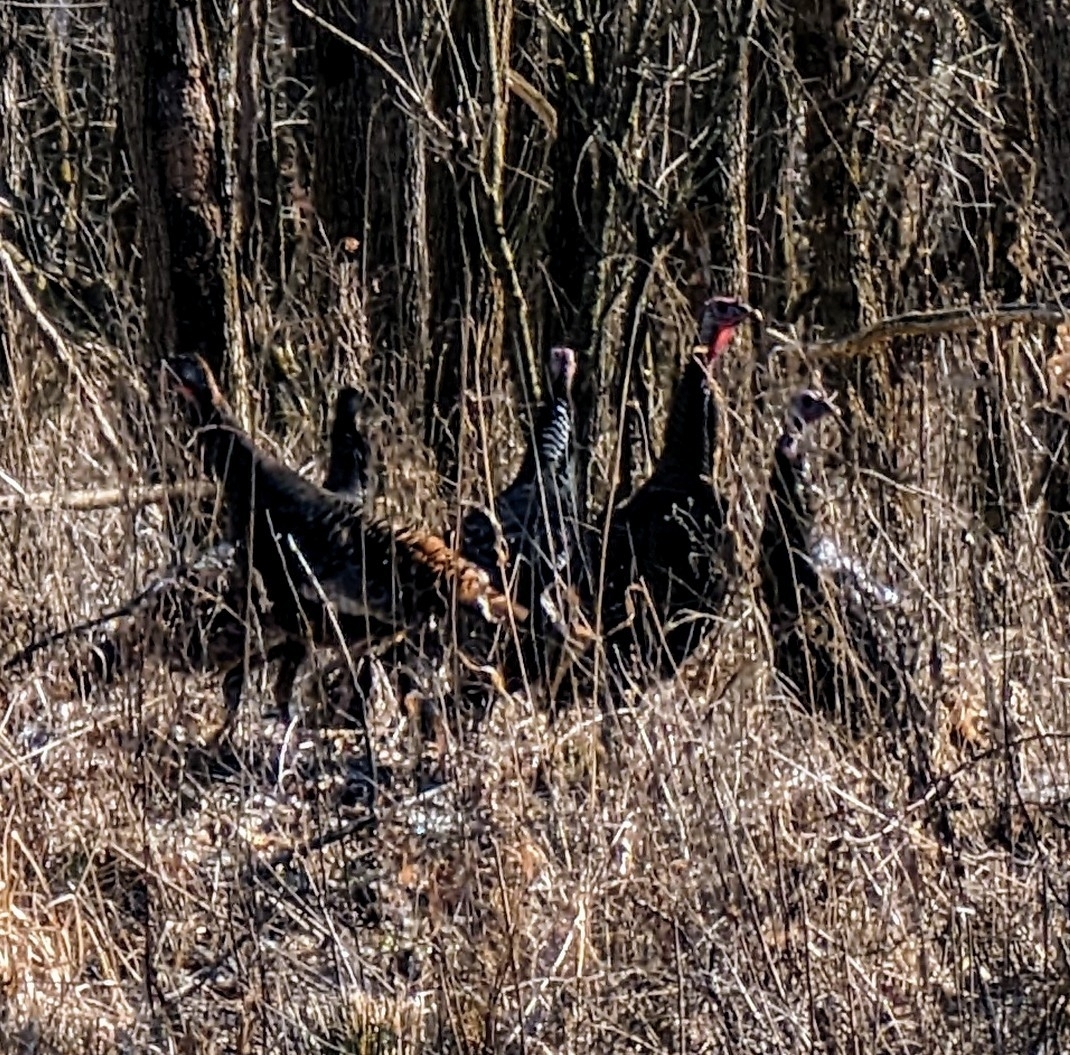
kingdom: Animalia
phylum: Chordata
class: Aves
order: Galliformes
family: Phasianidae
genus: Meleagris
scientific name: Meleagris gallopavo
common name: Wild turkey
